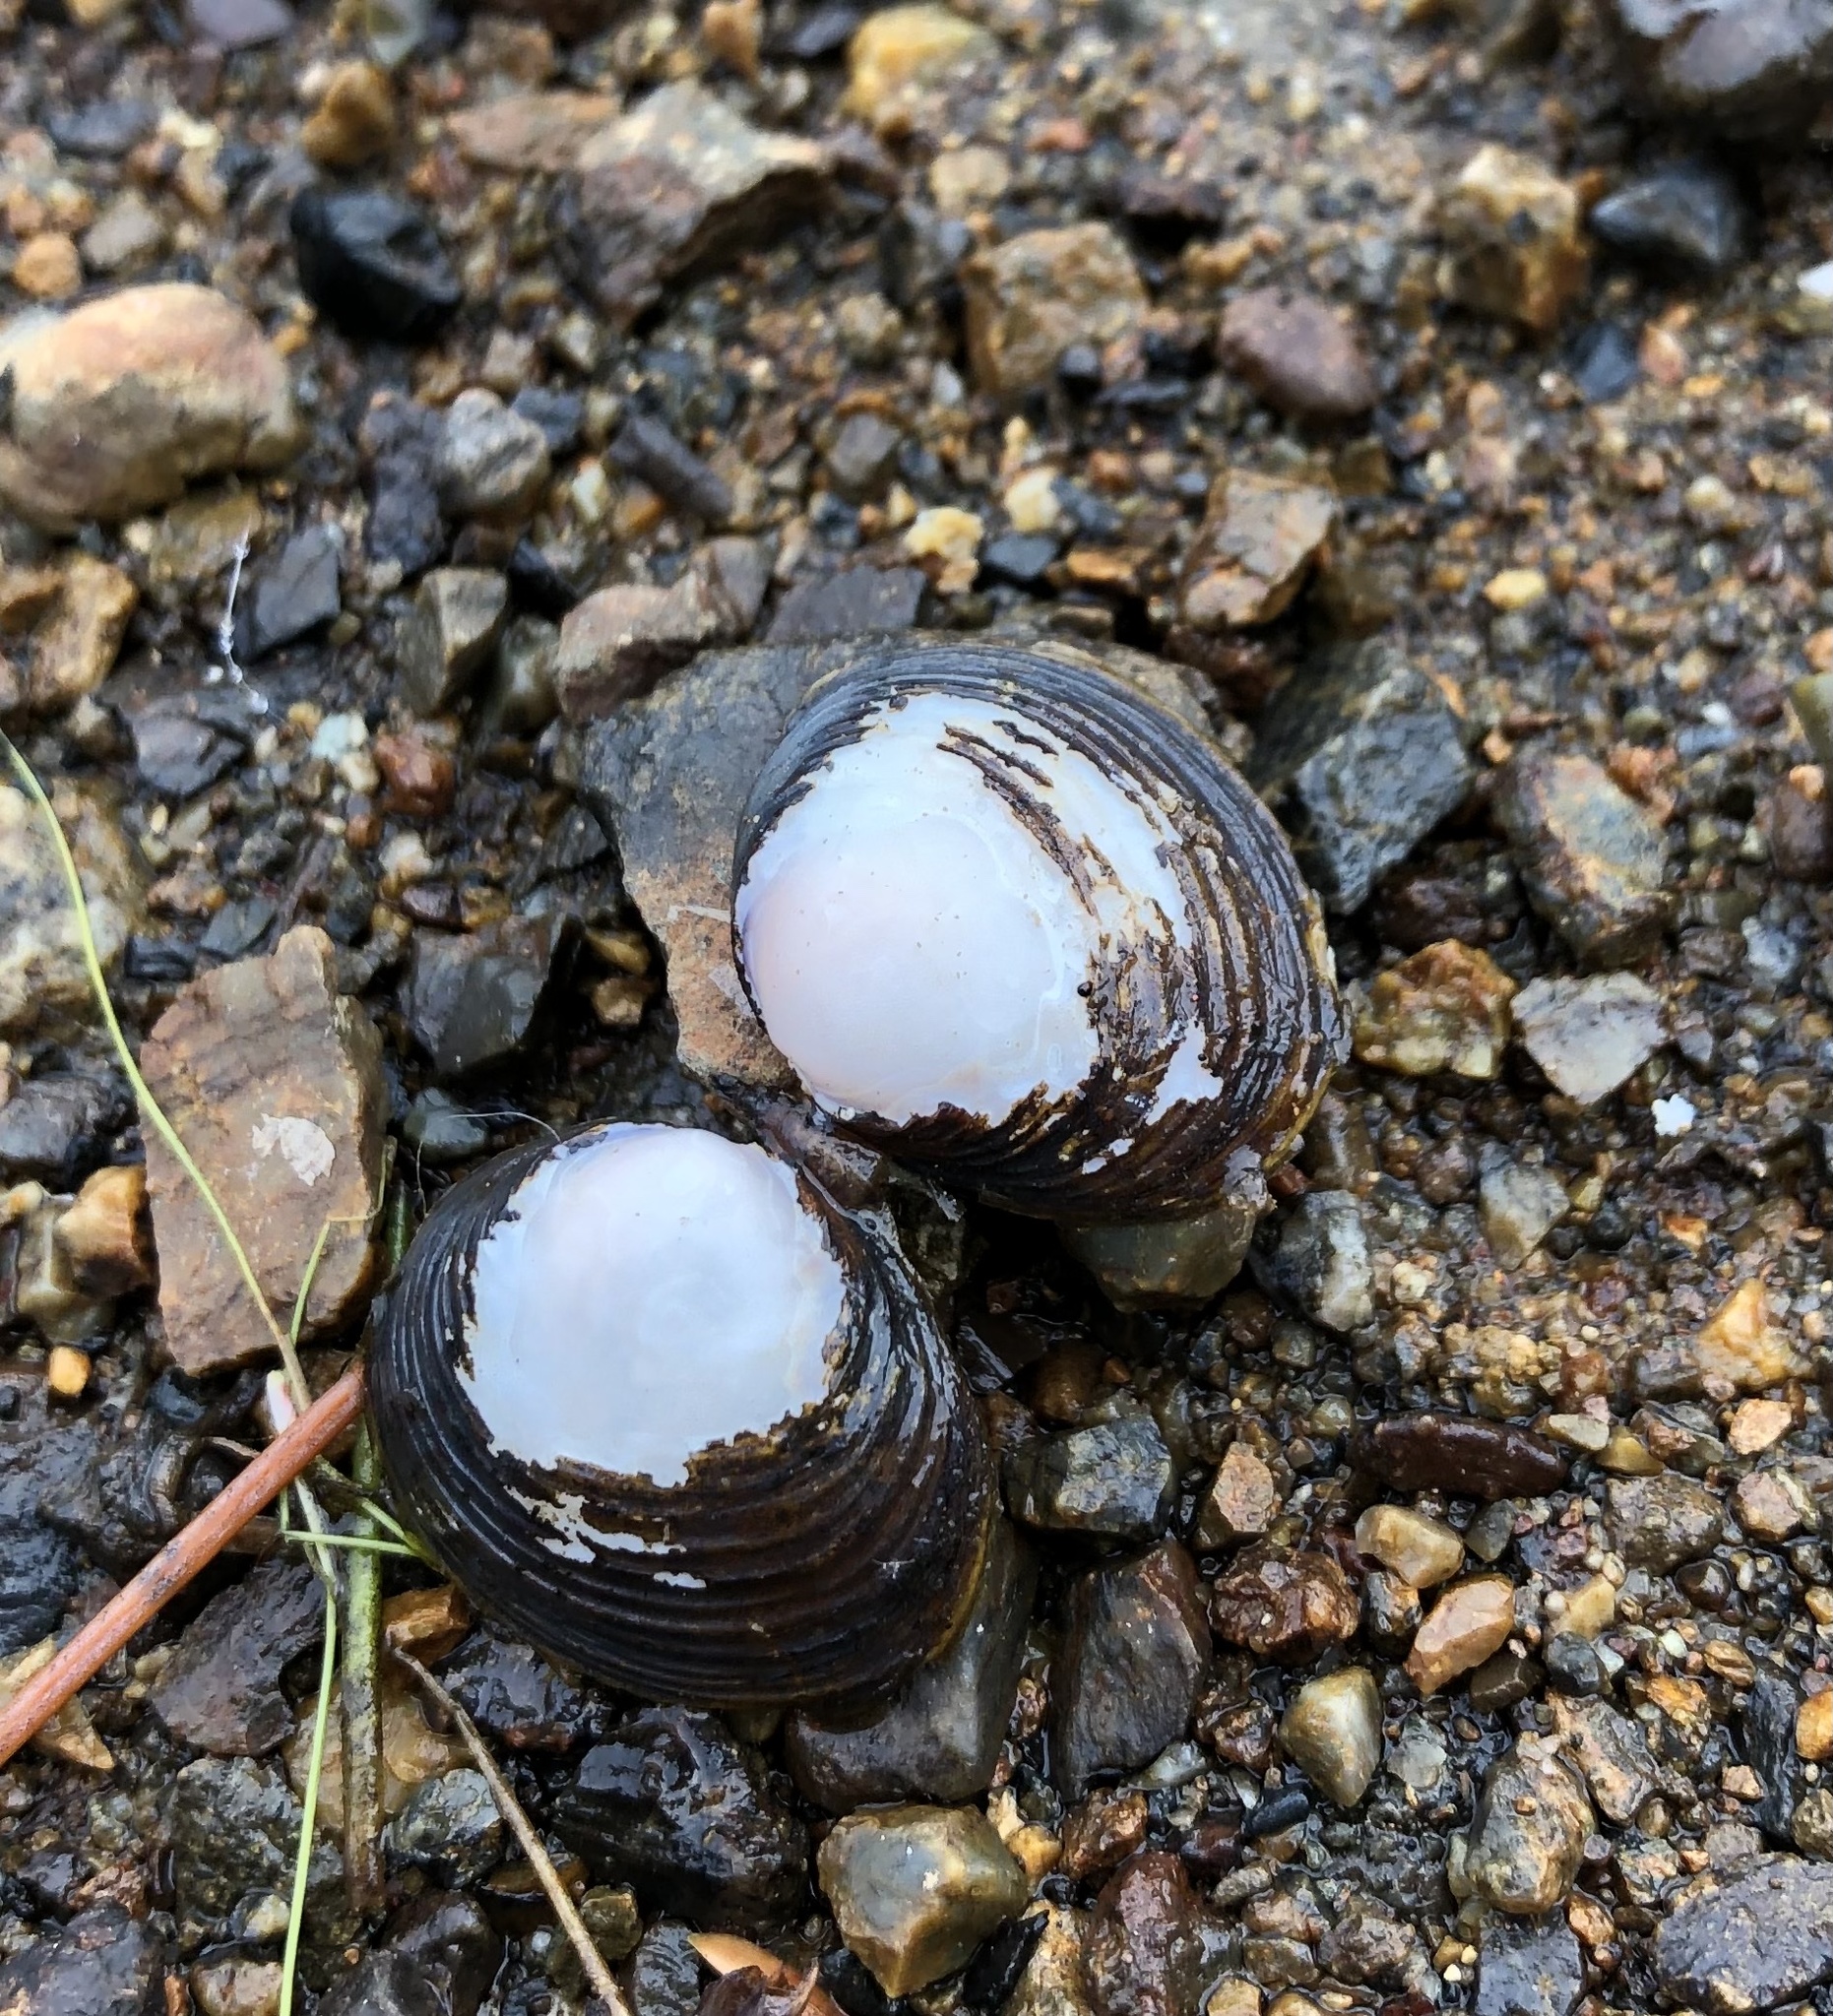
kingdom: Animalia
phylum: Mollusca
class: Bivalvia
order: Venerida
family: Cyrenidae
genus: Corbicula
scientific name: Corbicula fluminea
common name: Asian clam
